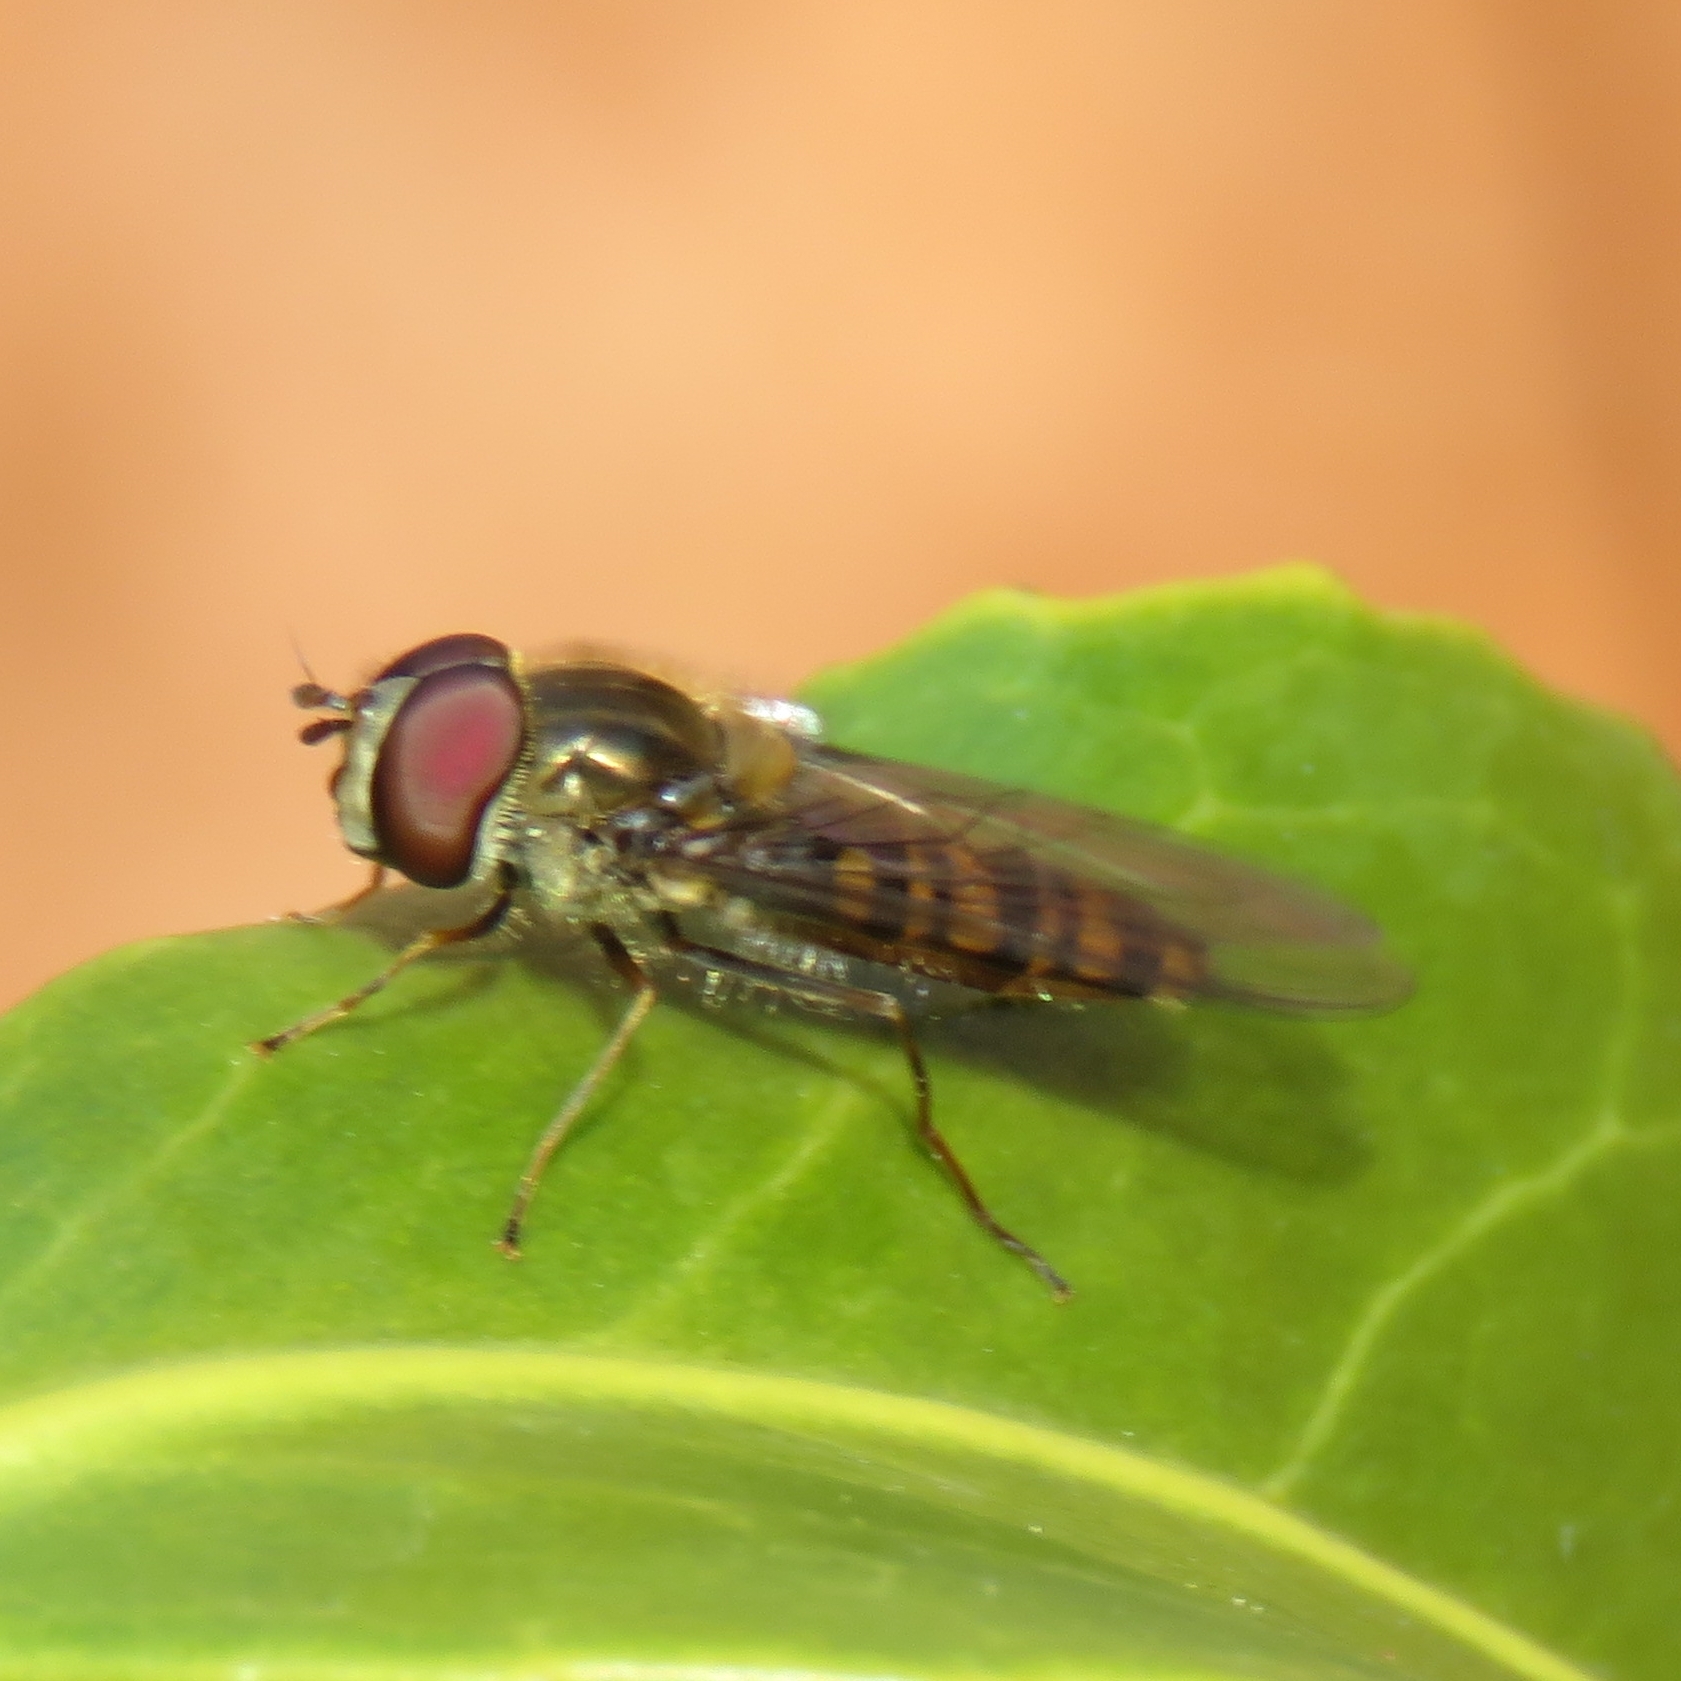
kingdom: Animalia
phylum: Arthropoda
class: Insecta
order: Diptera
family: Syrphidae
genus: Episyrphus
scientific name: Episyrphus balteatus
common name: Marmalade hoverfly
